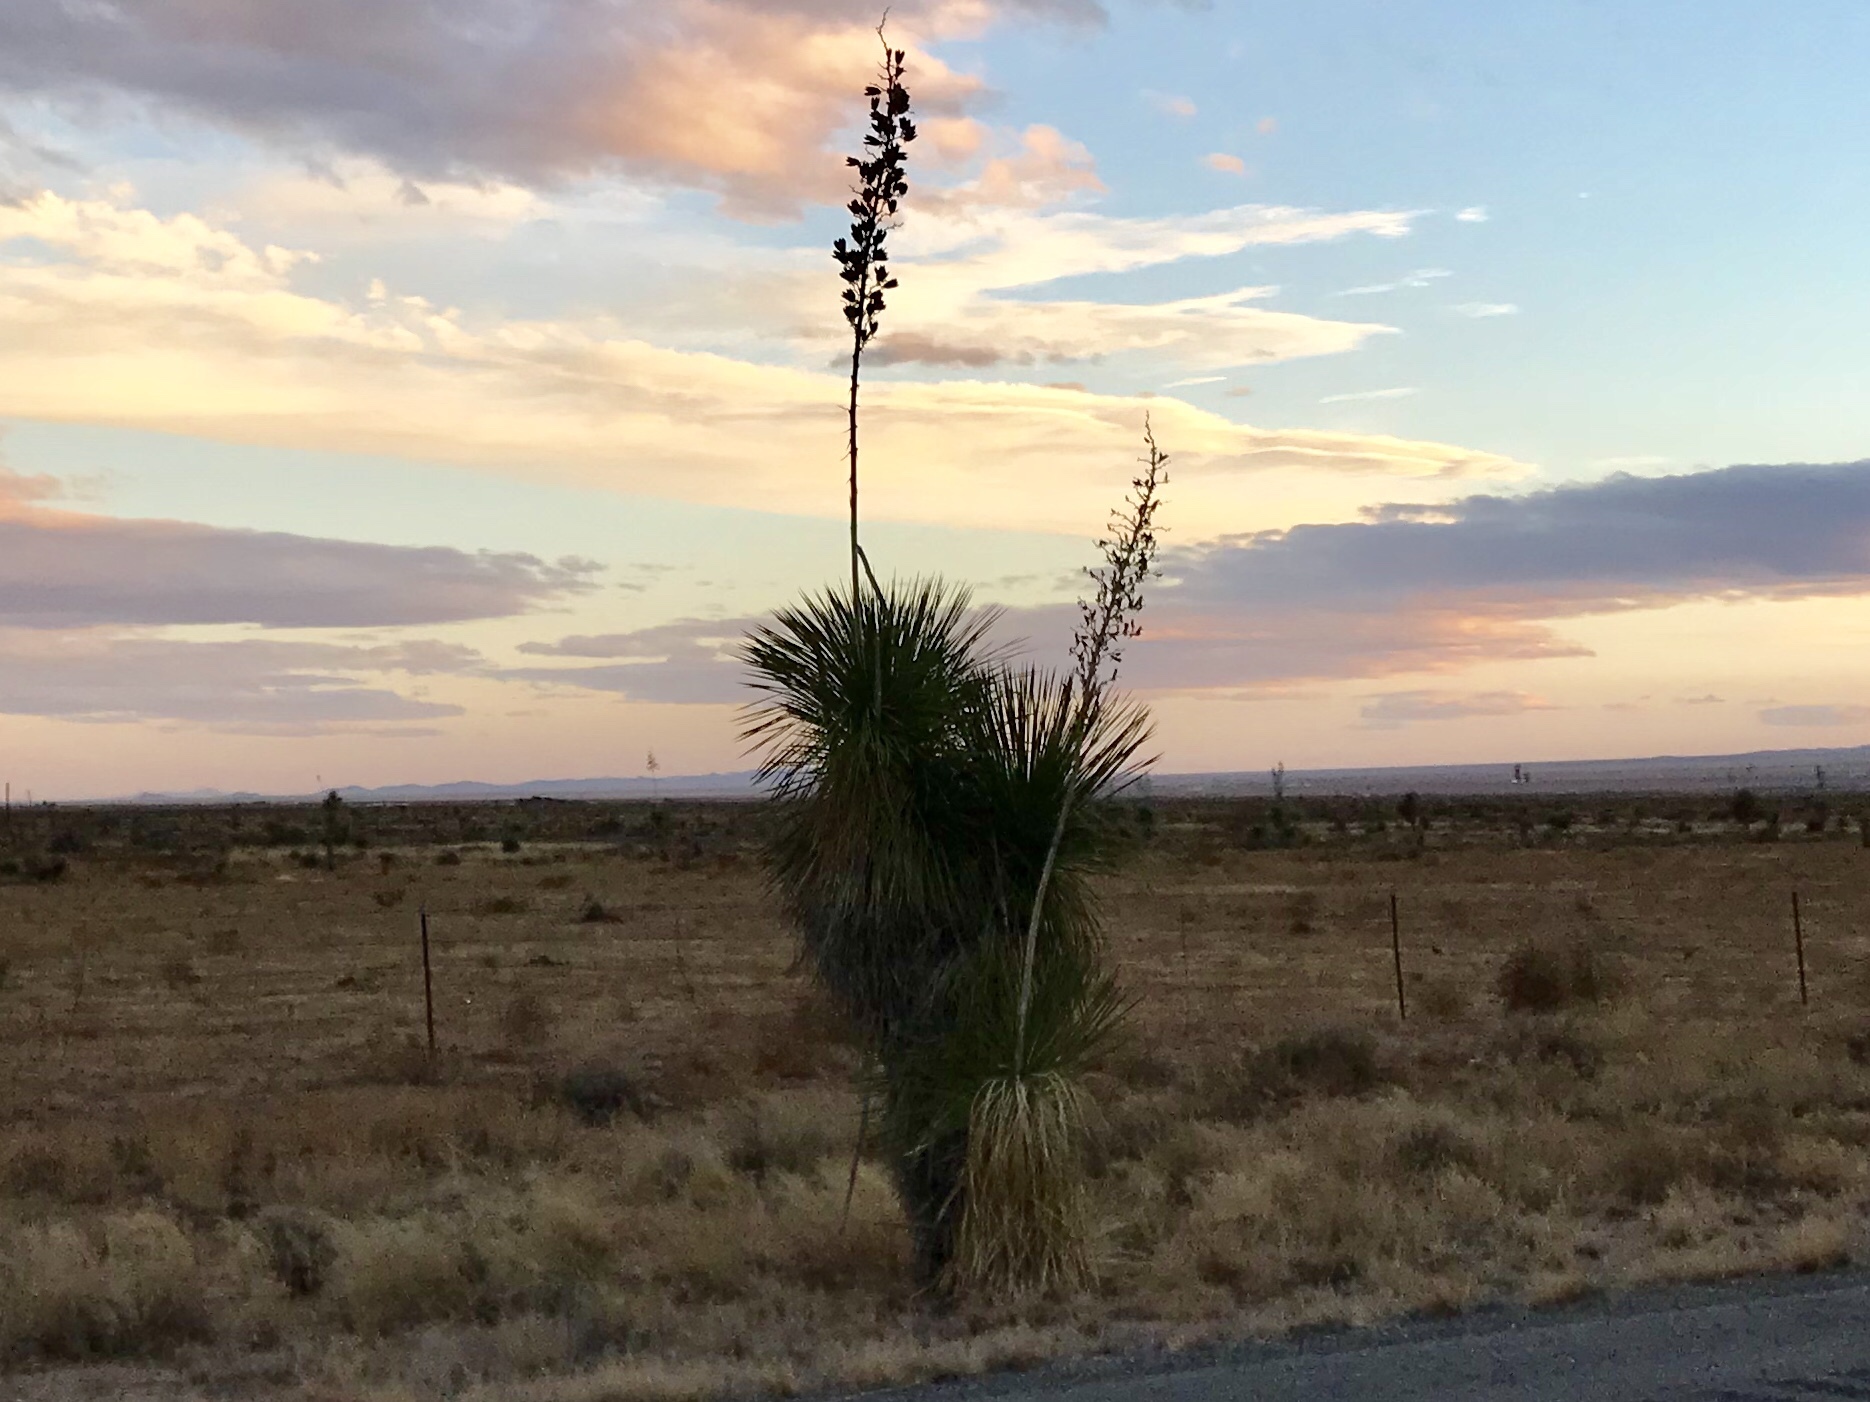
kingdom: Plantae
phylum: Tracheophyta
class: Liliopsida
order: Asparagales
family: Asparagaceae
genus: Yucca
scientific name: Yucca elata
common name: Palmella
